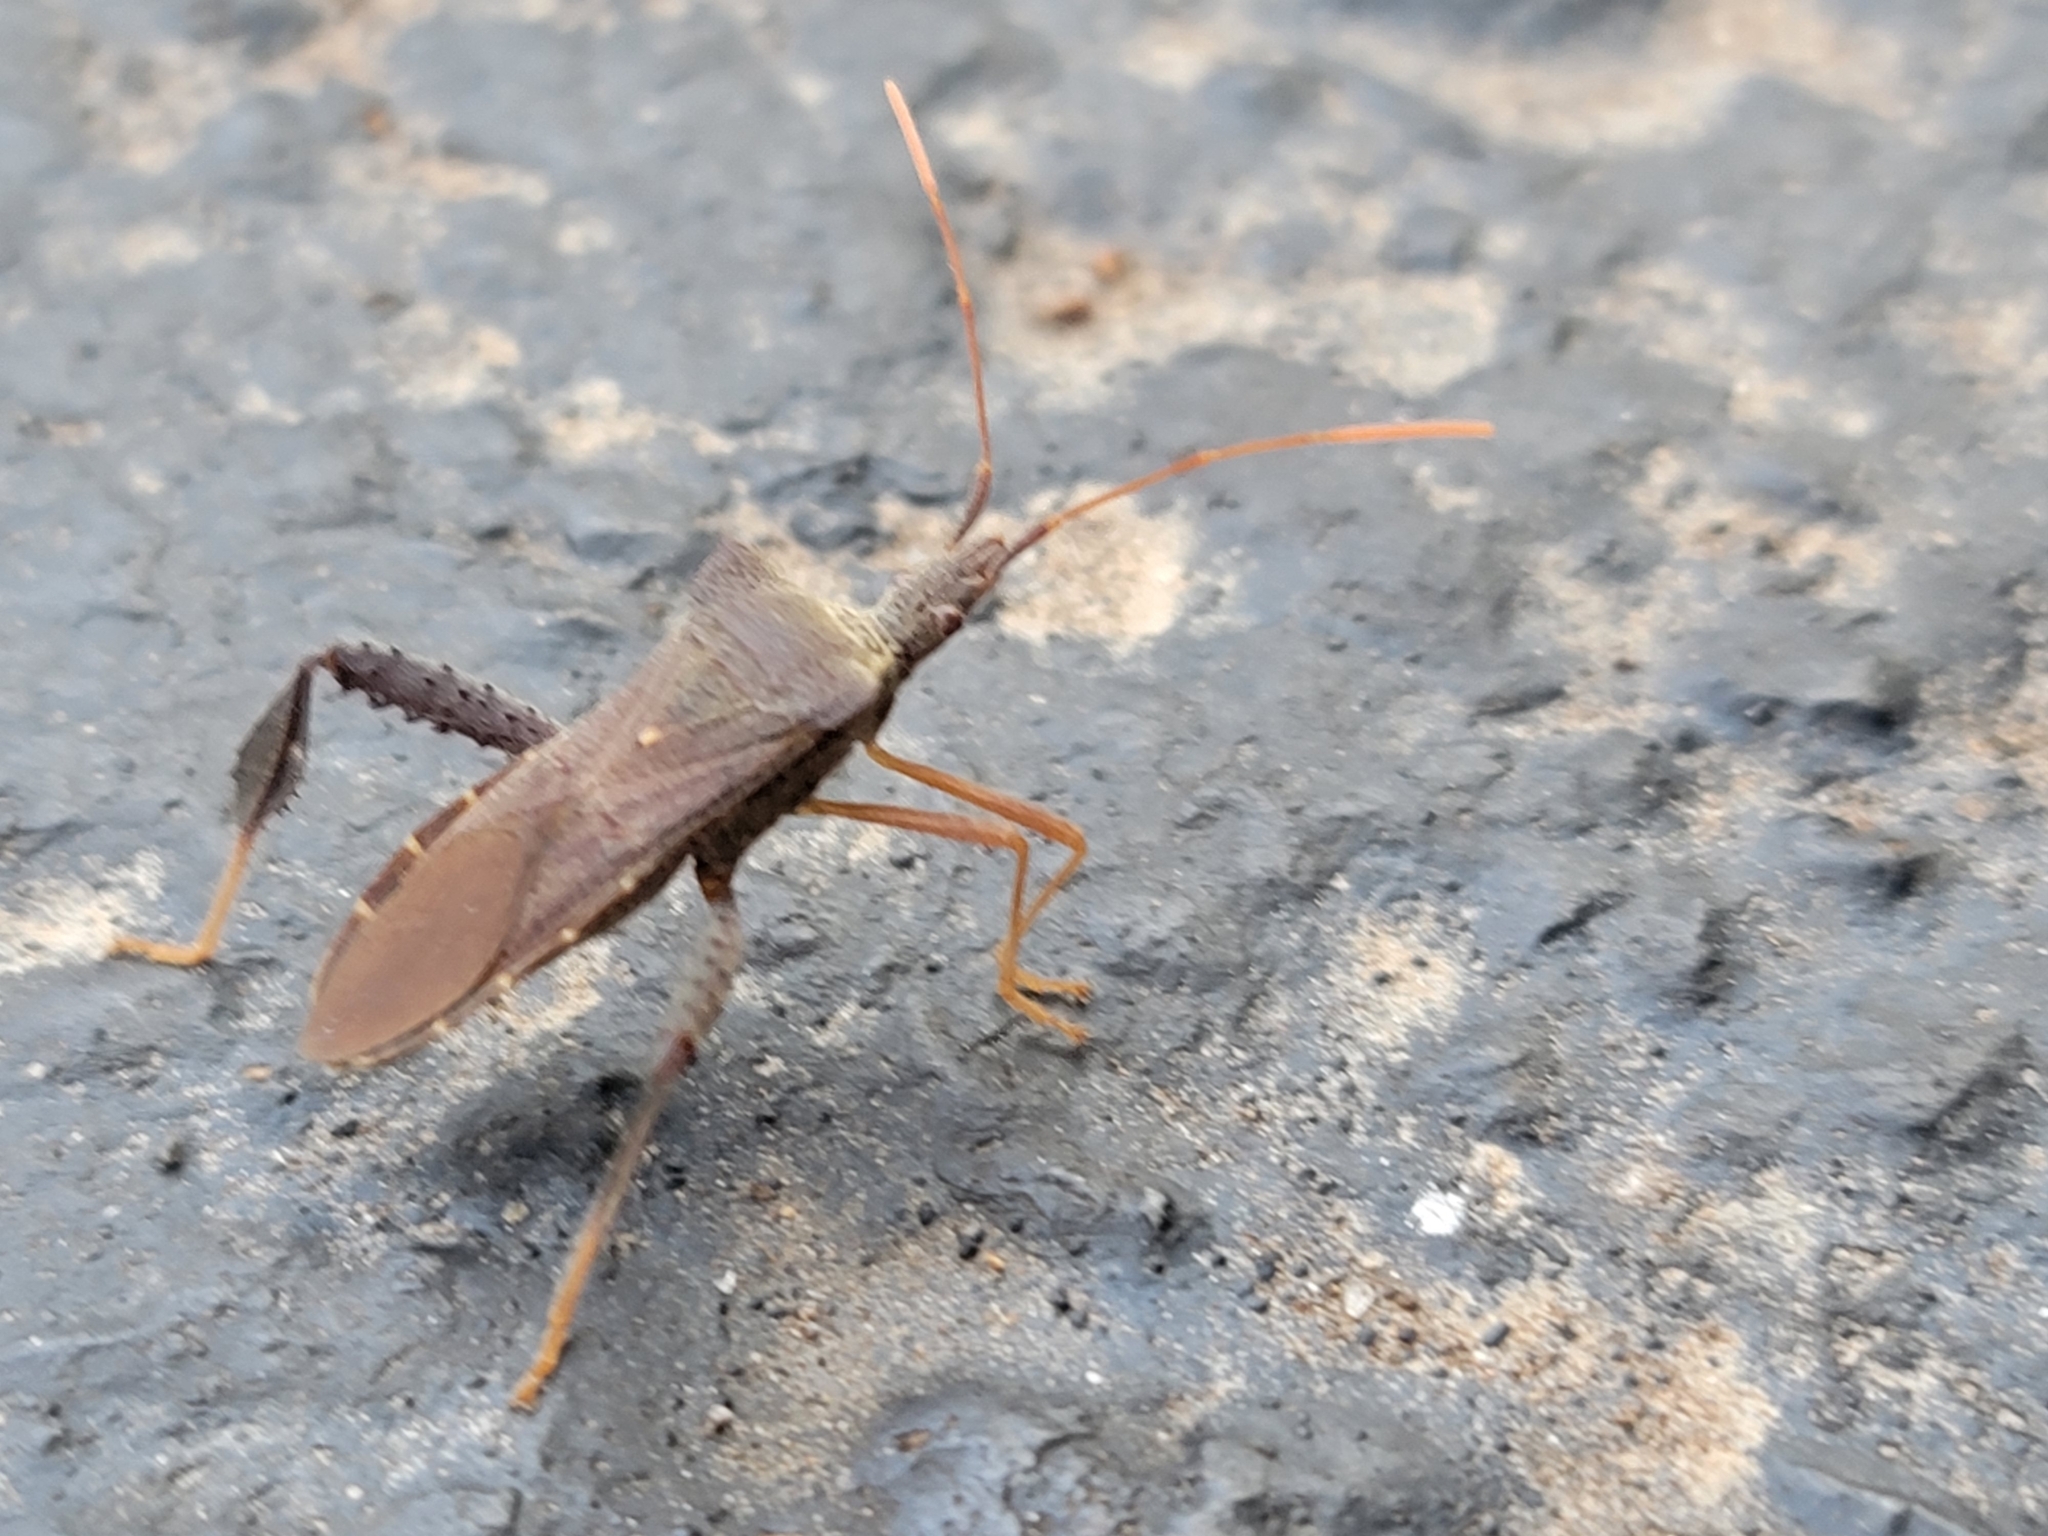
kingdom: Animalia
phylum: Arthropoda
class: Insecta
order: Hemiptera
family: Coreidae
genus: Leptoglossus
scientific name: Leptoglossus fulvicornis
